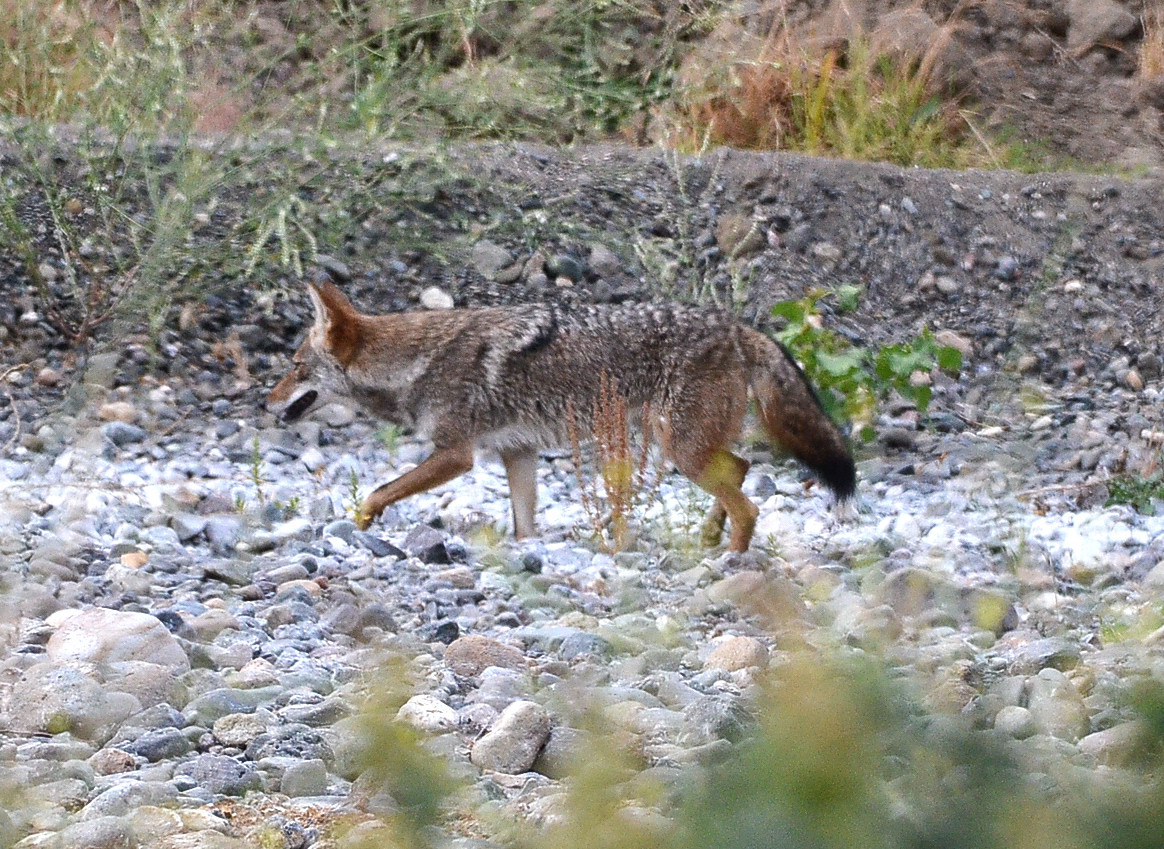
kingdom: Animalia
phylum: Chordata
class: Mammalia
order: Carnivora
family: Canidae
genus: Canis
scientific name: Canis latrans
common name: Coyote
